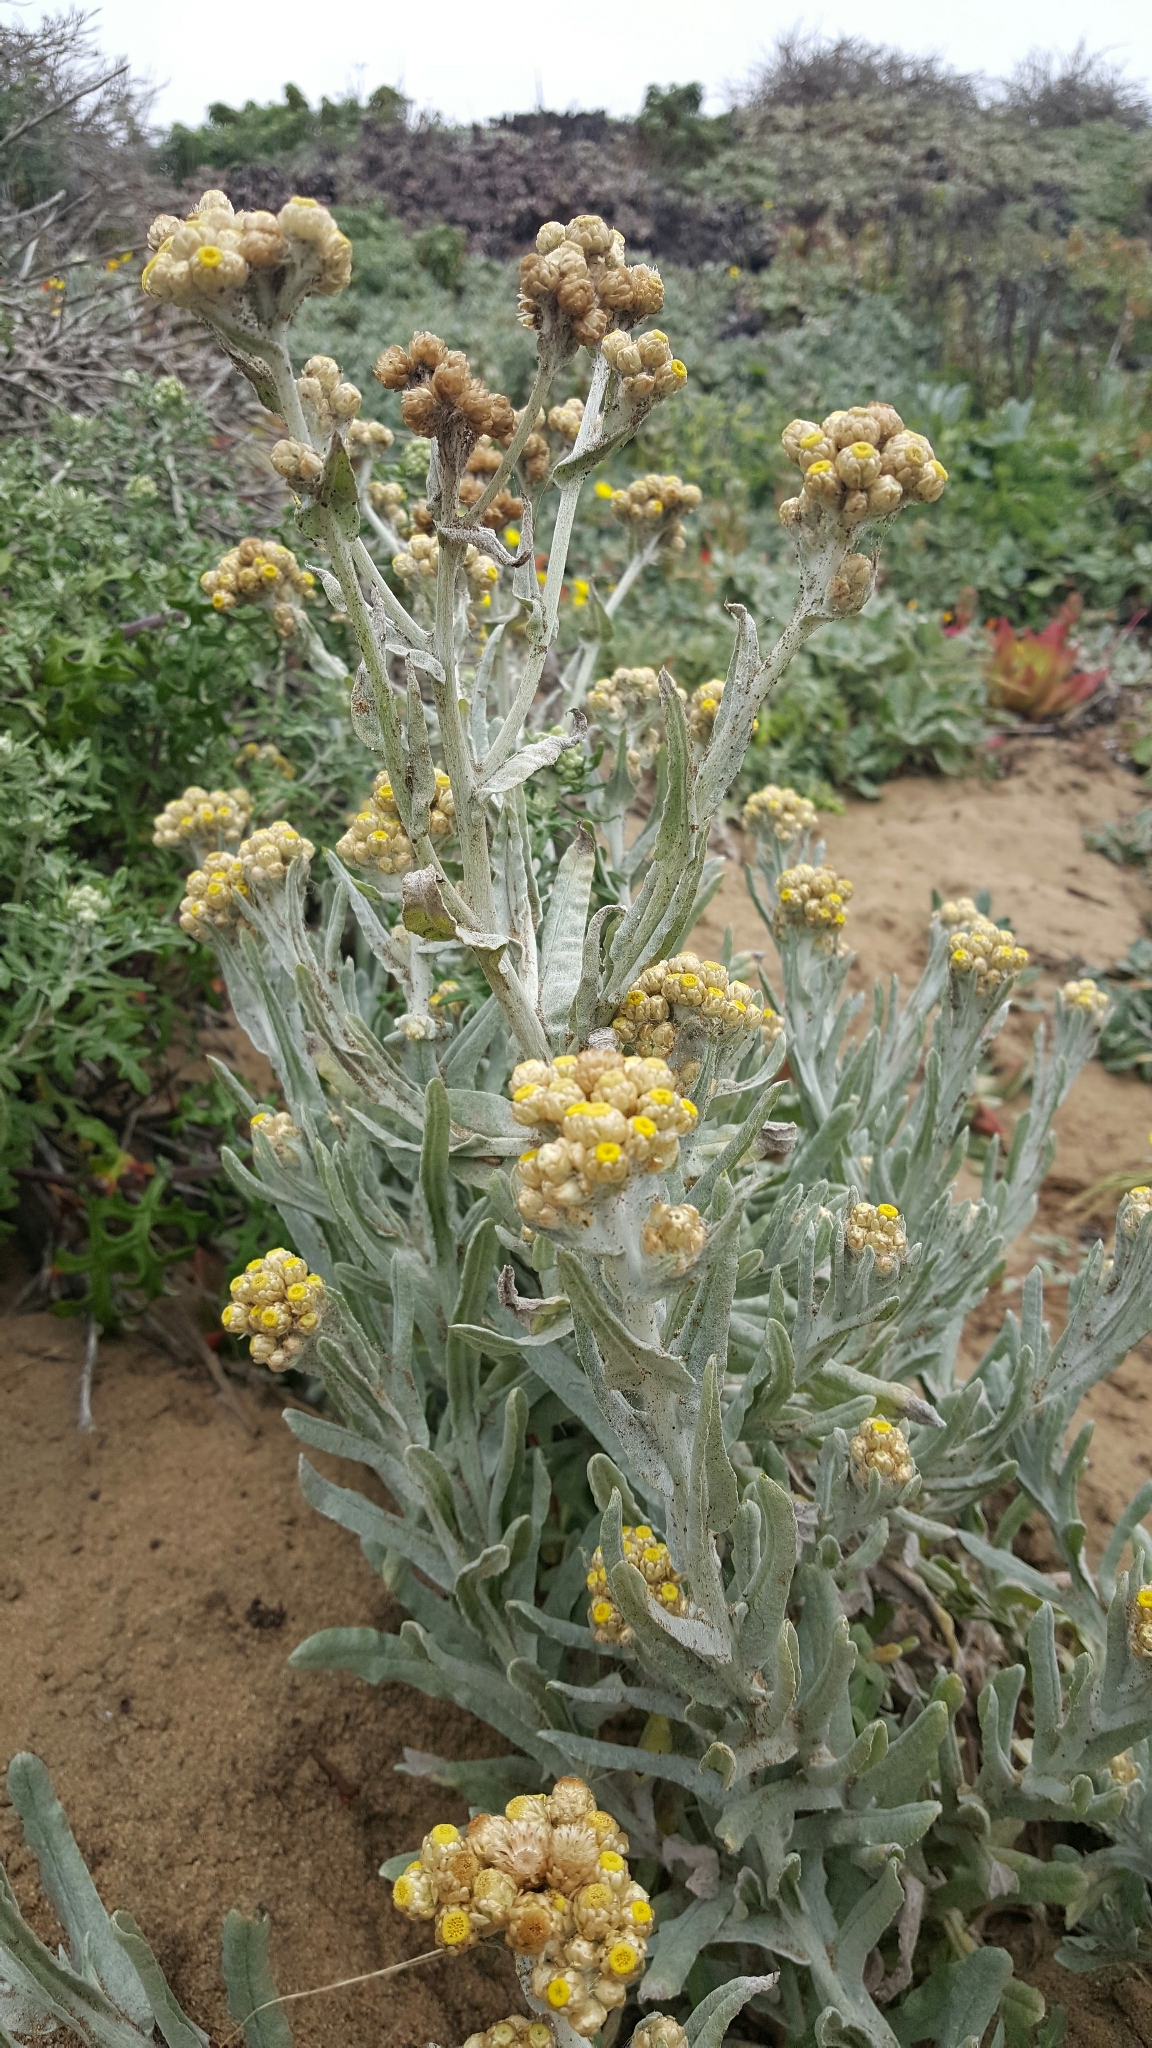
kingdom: Plantae
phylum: Tracheophyta
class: Magnoliopsida
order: Asterales
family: Asteraceae
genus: Pseudognaphalium
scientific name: Pseudognaphalium stramineum
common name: Cotton-batting-plant
